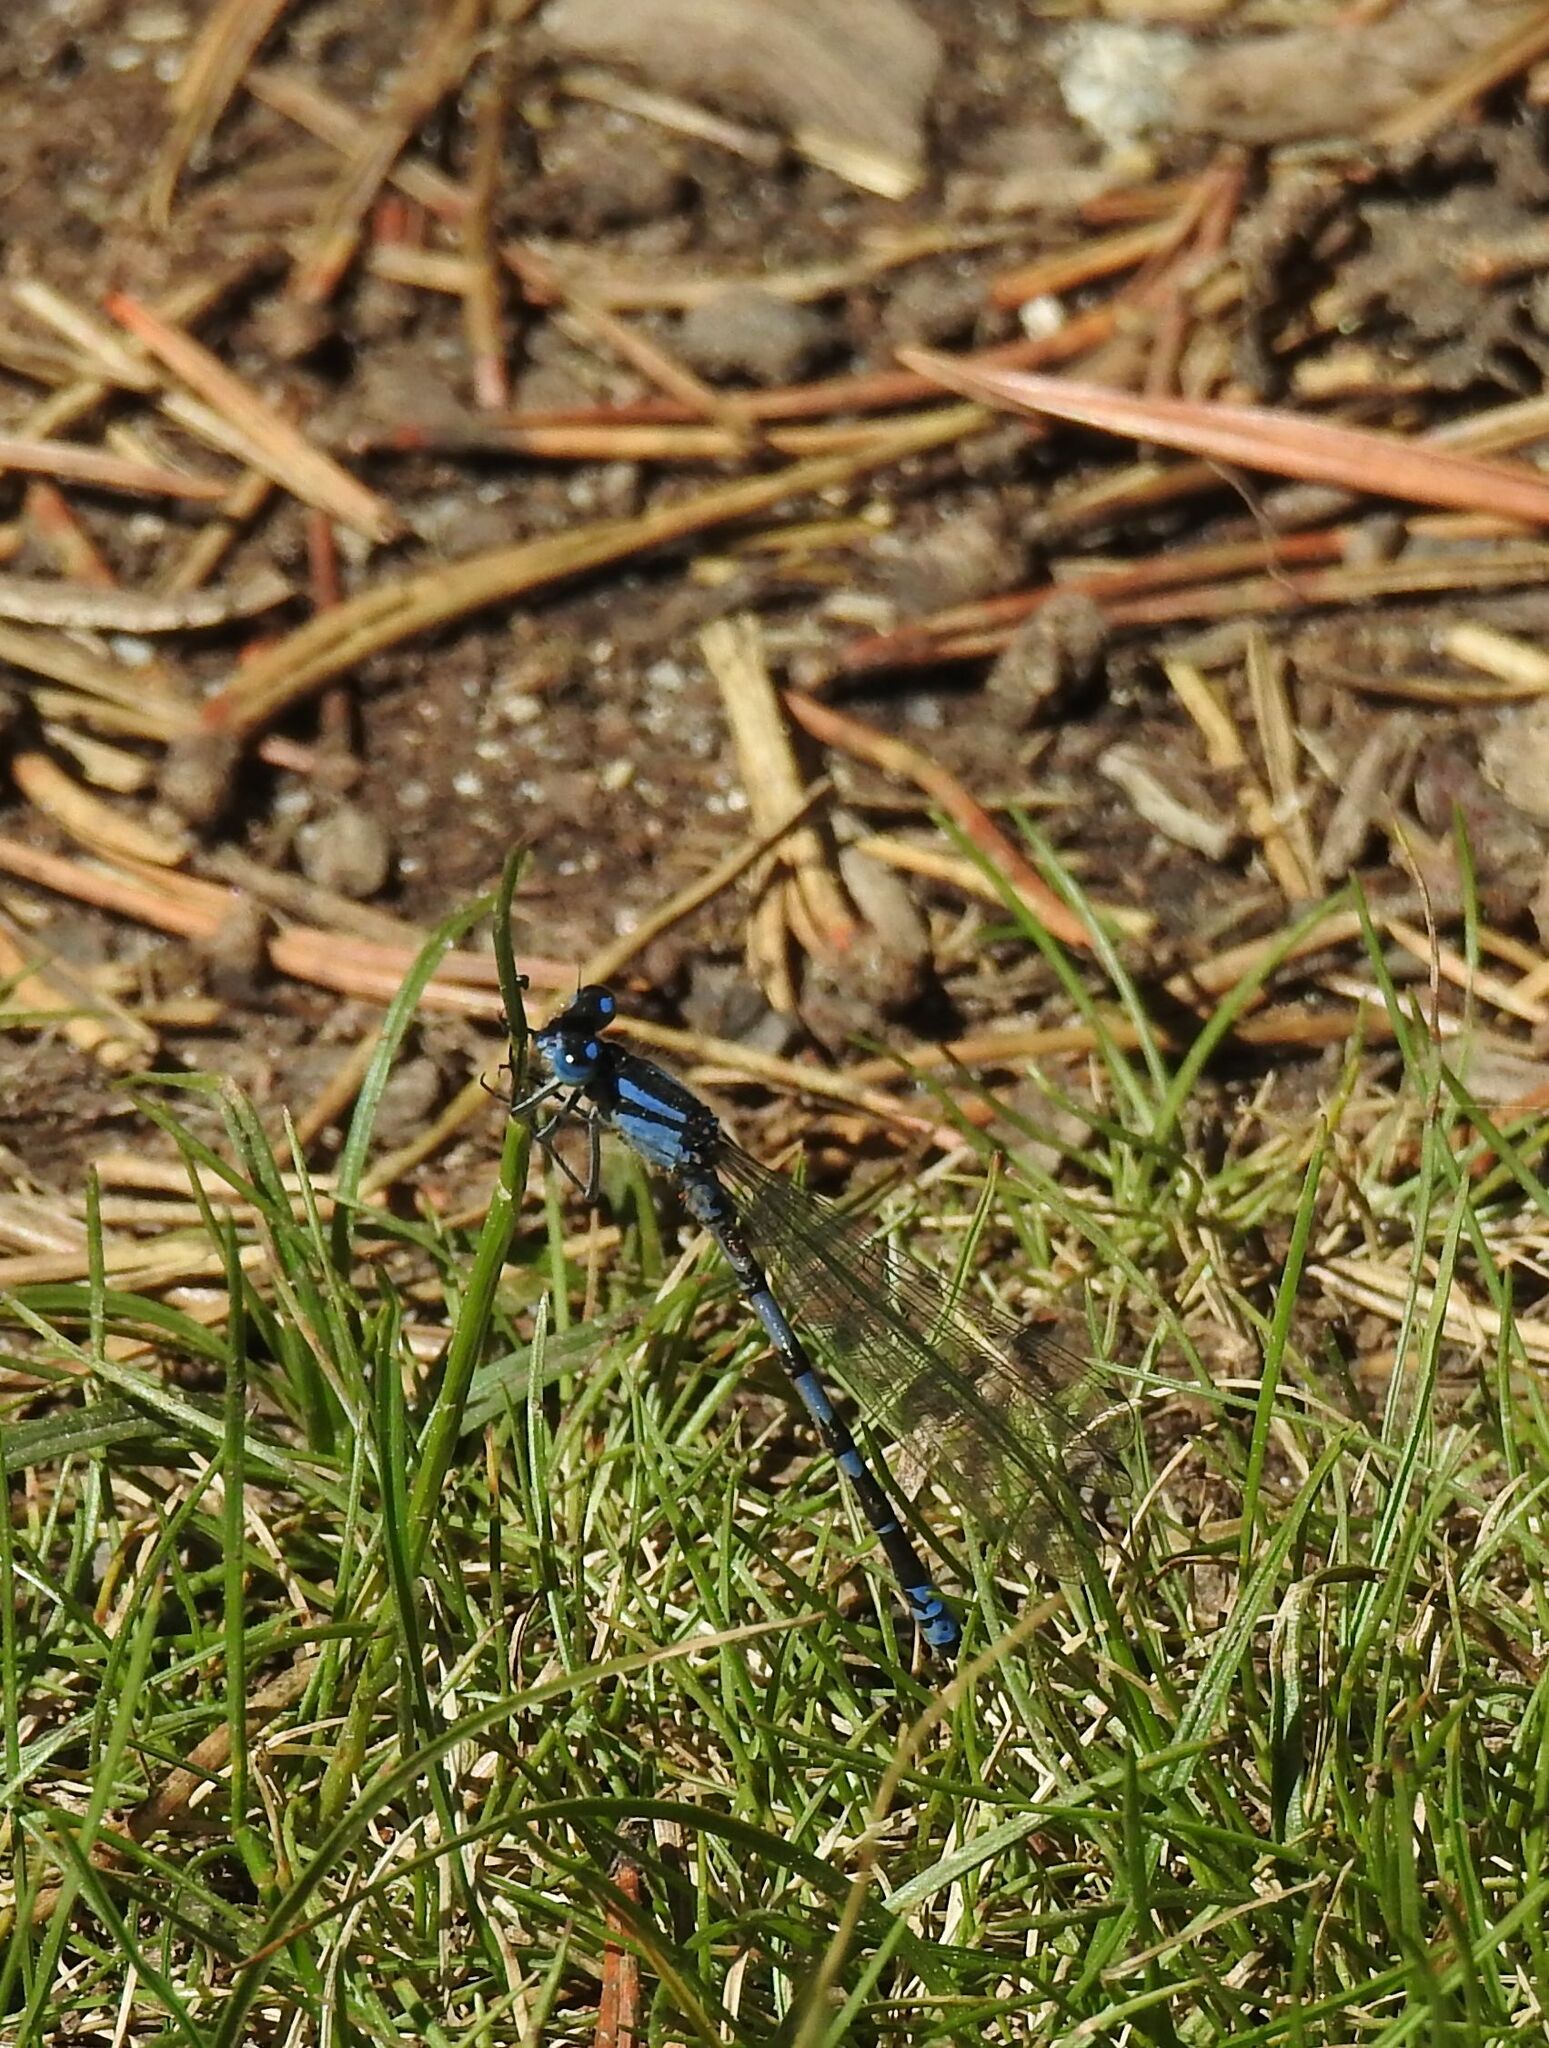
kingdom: Animalia
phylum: Arthropoda
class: Insecta
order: Odonata
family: Coenagrionidae
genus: Enallagma
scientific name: Enallagma cyathigerum
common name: Common blue damselfly
